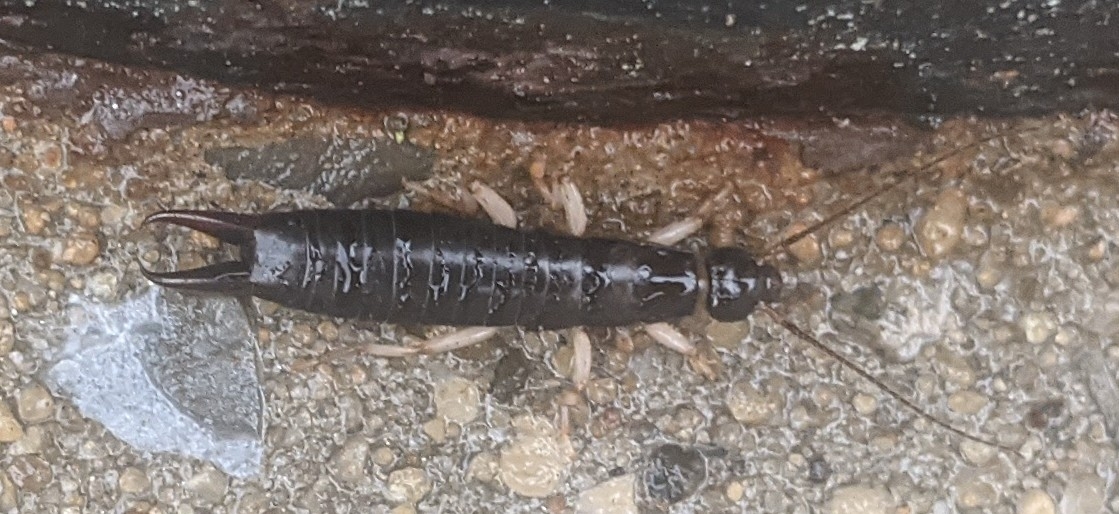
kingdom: Animalia
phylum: Arthropoda
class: Insecta
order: Dermaptera
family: Anisolabididae
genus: Anisolabis
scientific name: Anisolabis maritima
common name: Maritime earwig
